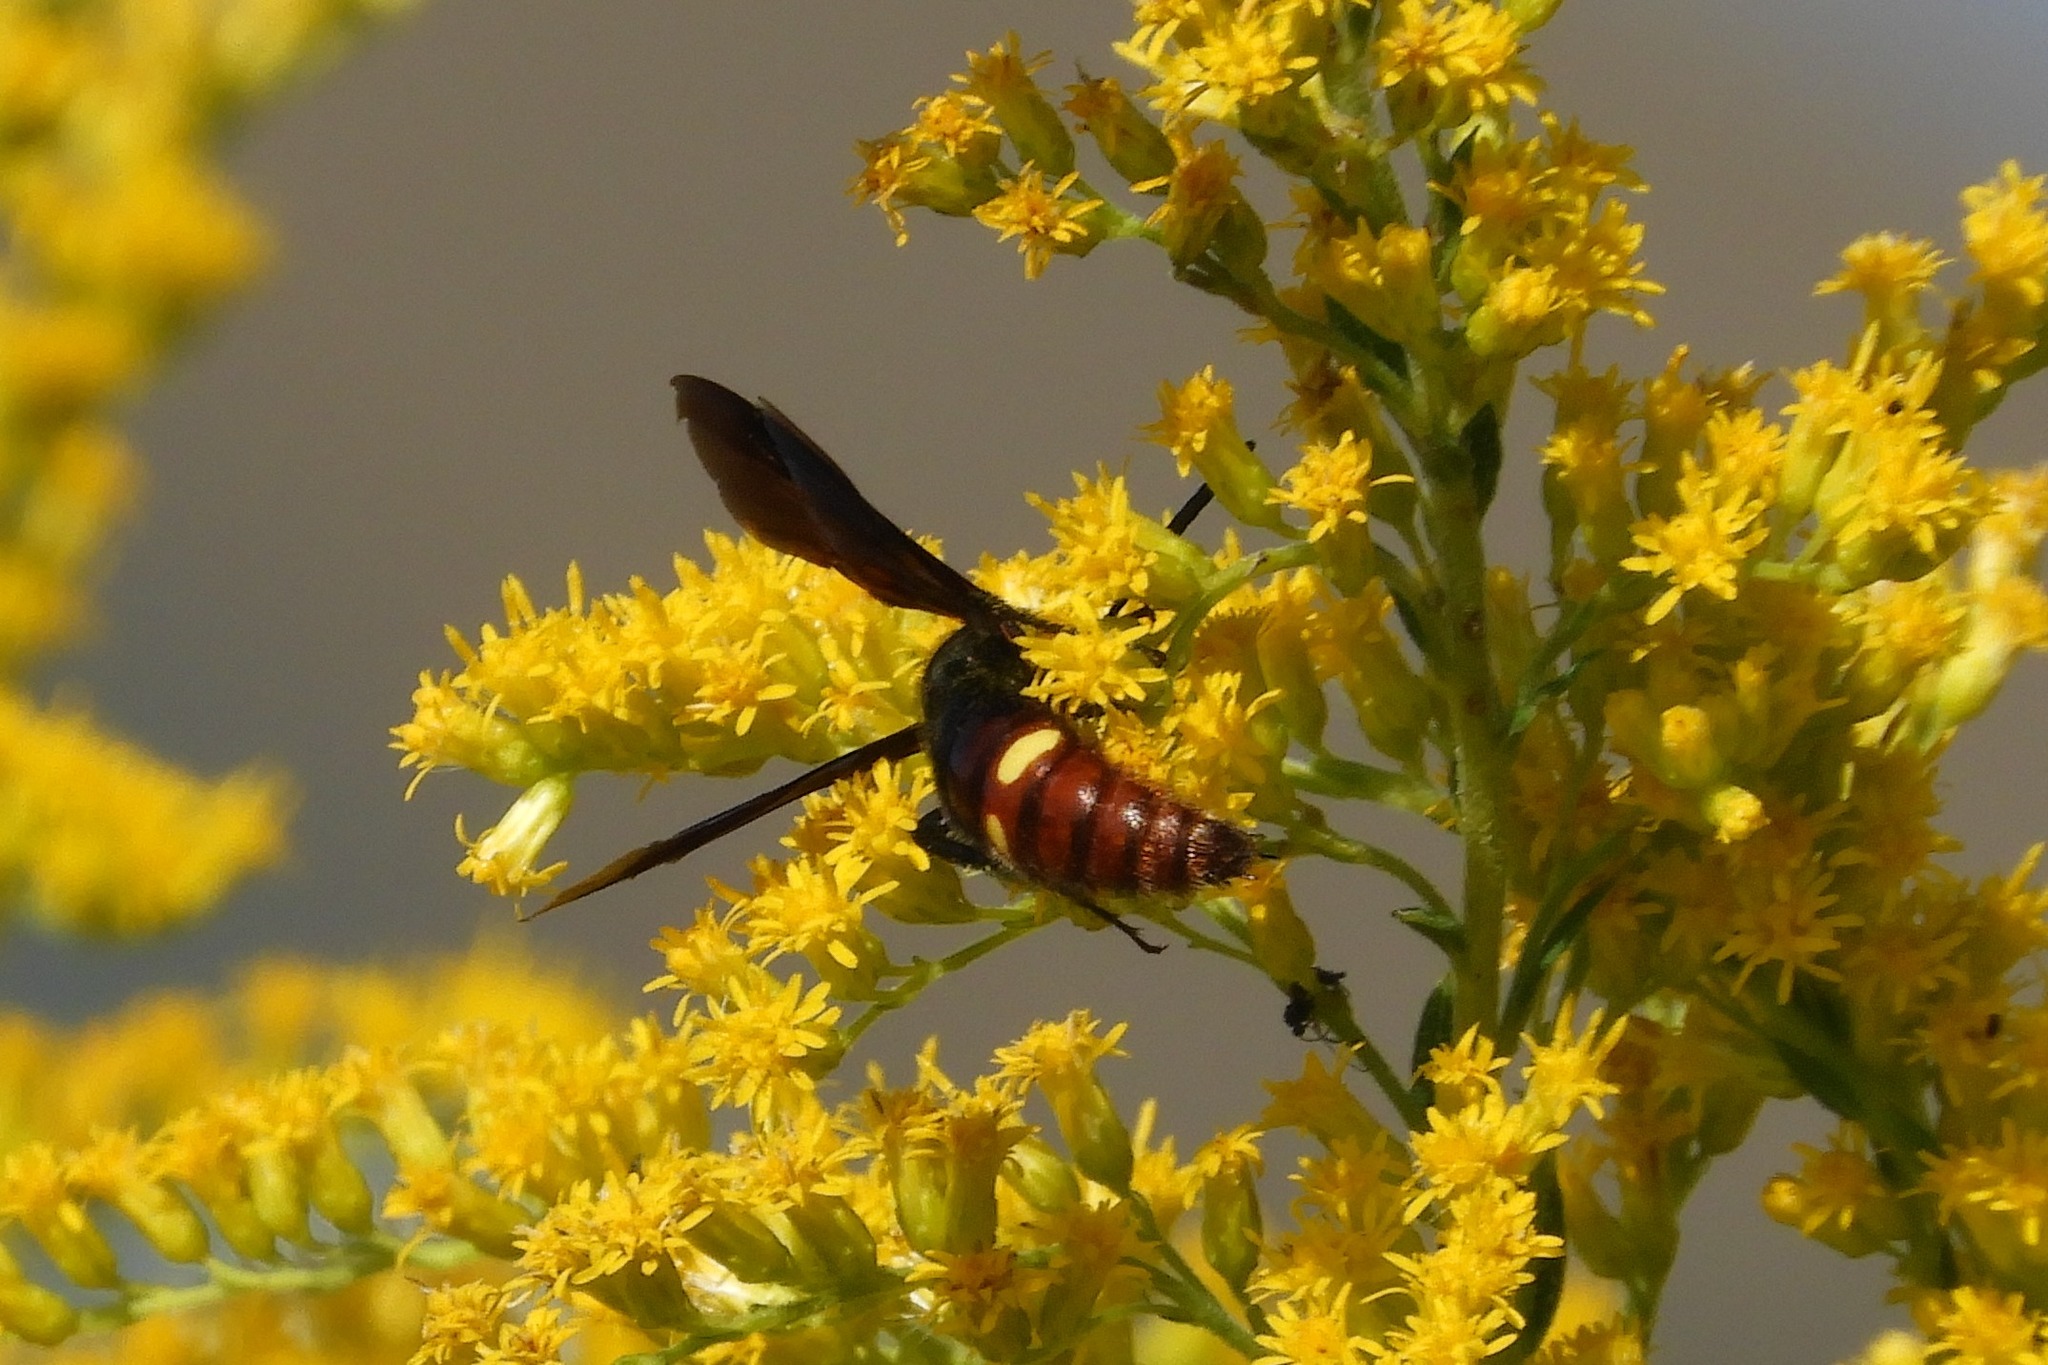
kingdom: Animalia
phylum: Arthropoda
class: Insecta
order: Hymenoptera
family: Scoliidae
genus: Scolia
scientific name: Scolia dubia
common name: Blue-winged scoliid wasp
